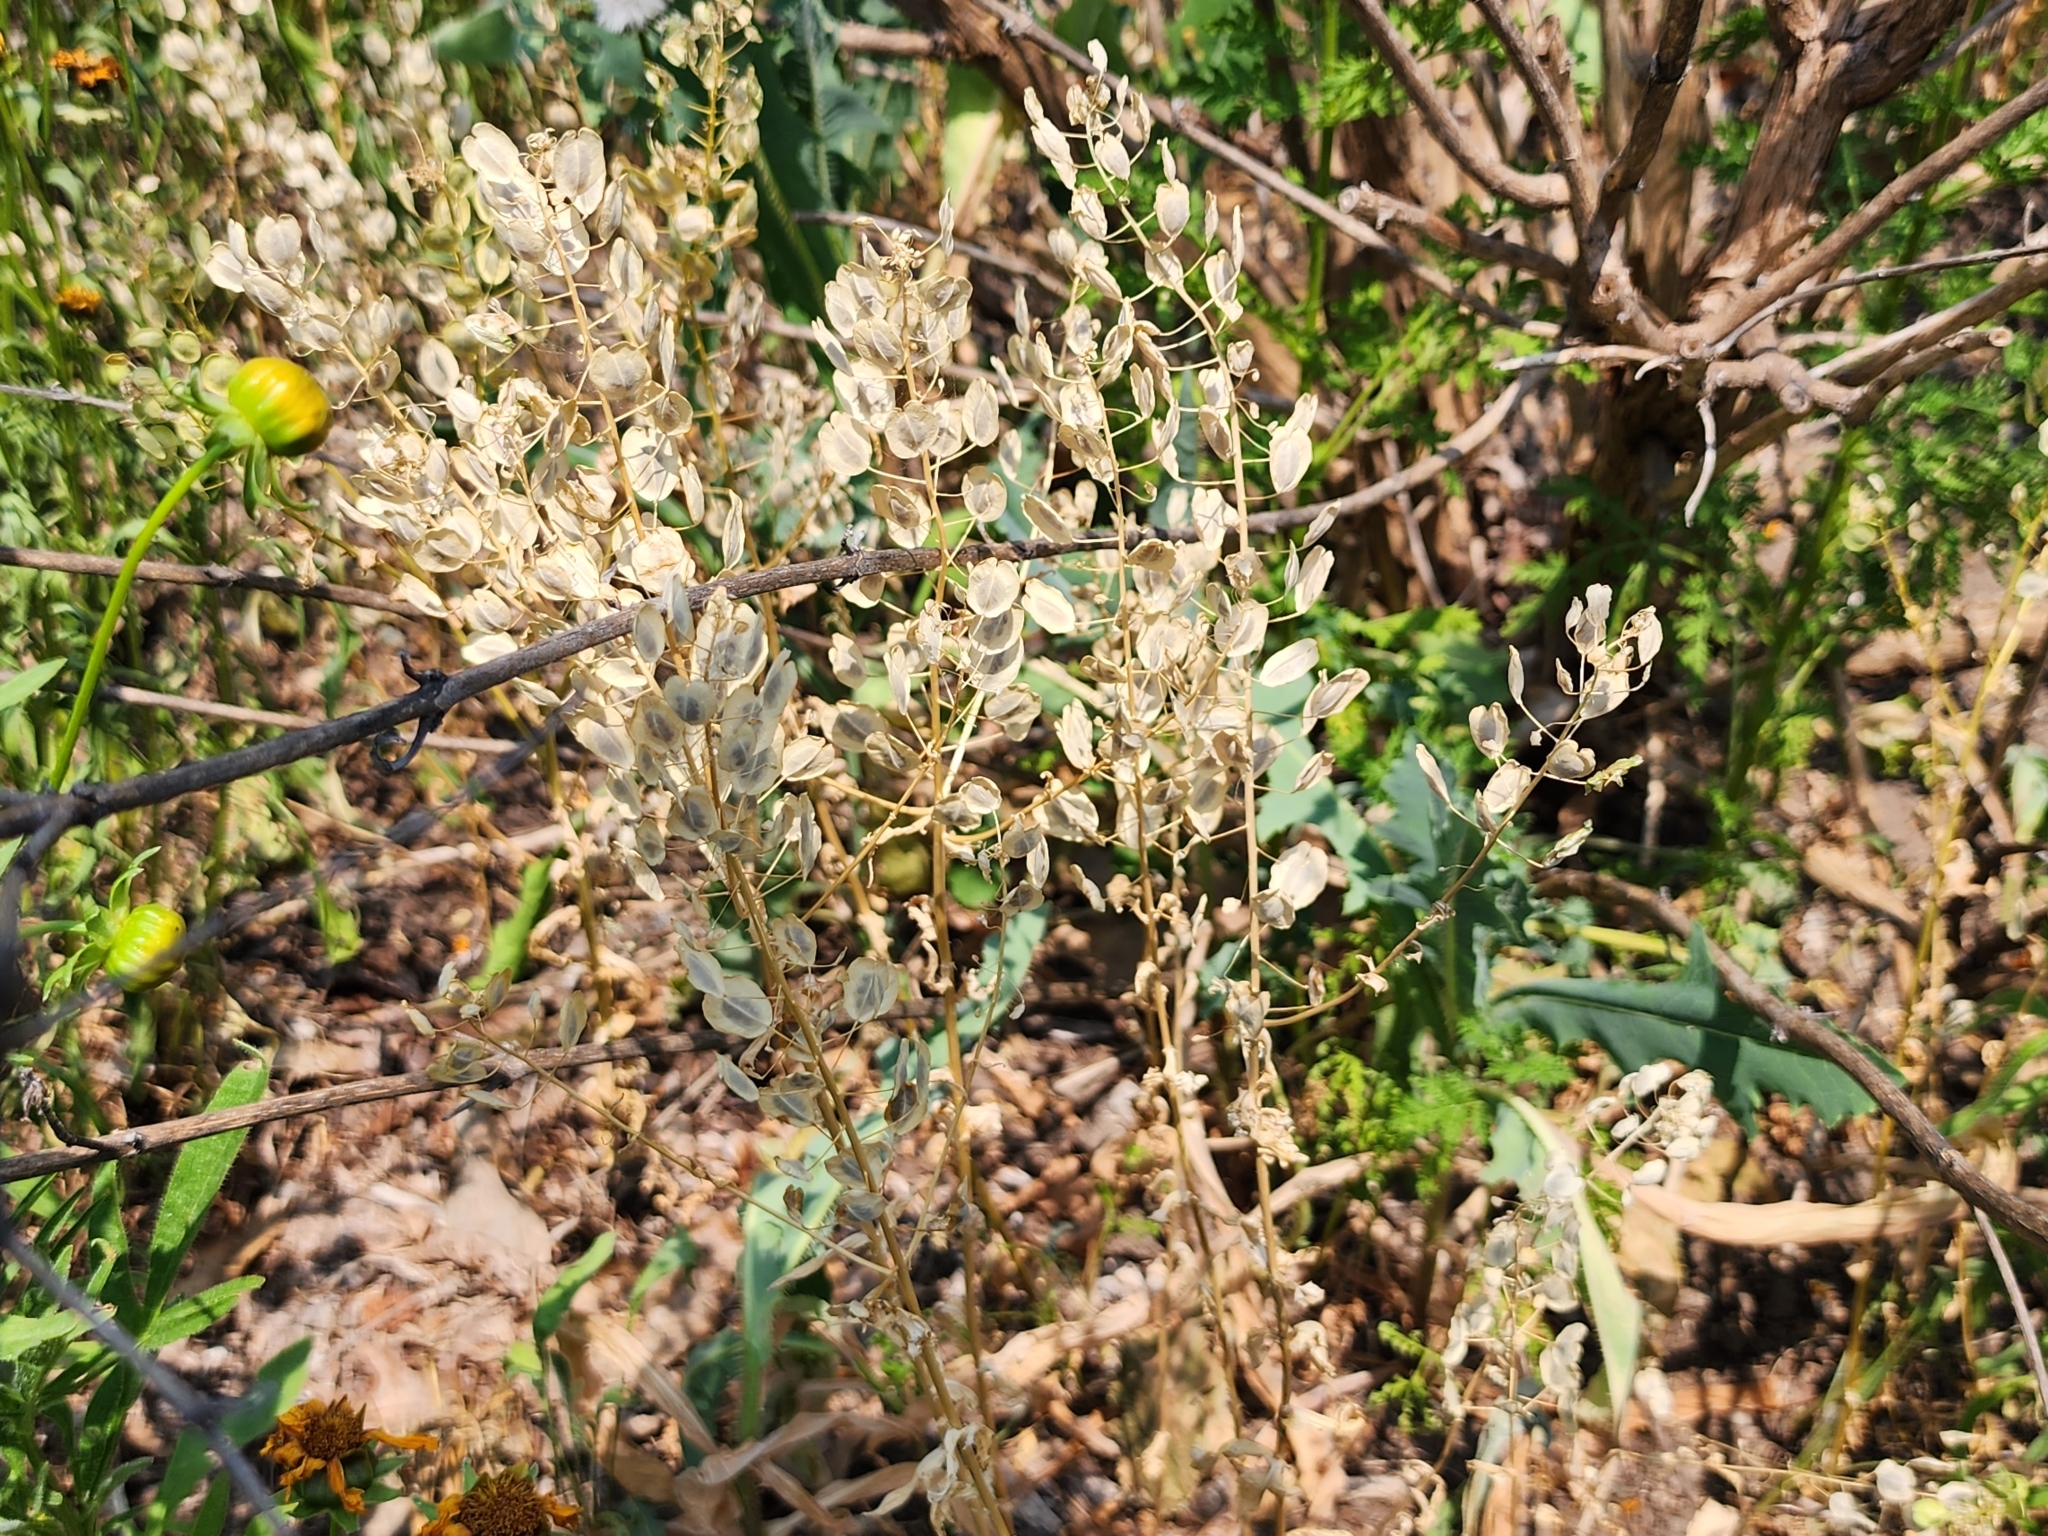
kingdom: Plantae
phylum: Tracheophyta
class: Magnoliopsida
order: Brassicales
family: Brassicaceae
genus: Thlaspi
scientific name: Thlaspi arvense
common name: Field pennycress
